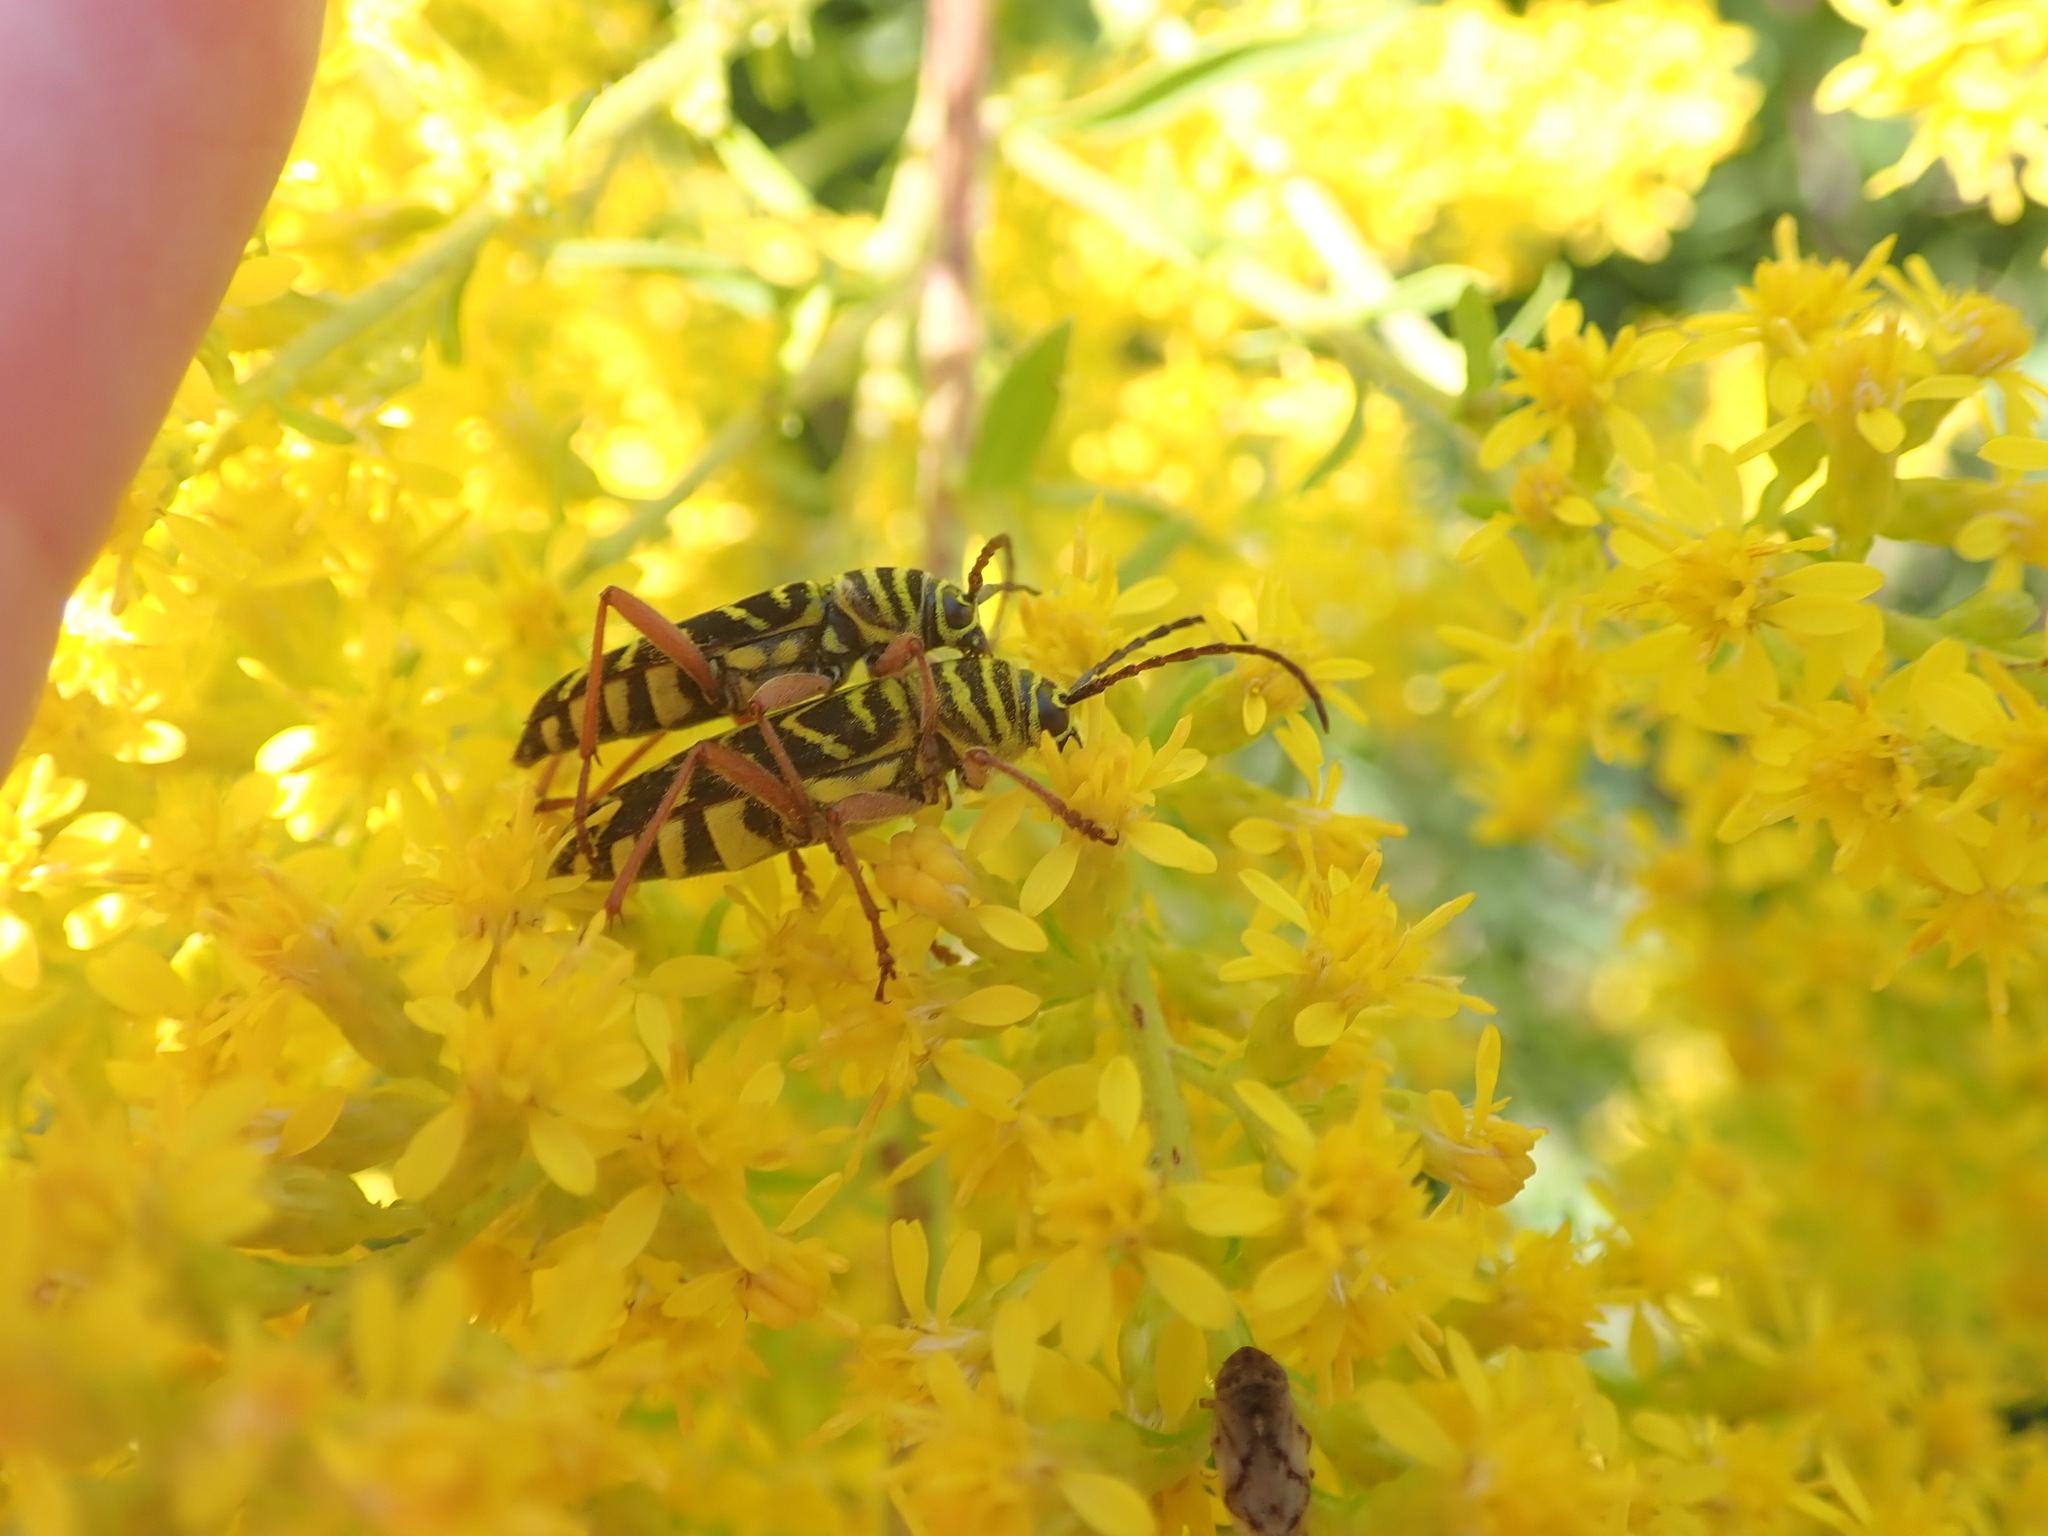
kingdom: Animalia
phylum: Arthropoda
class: Insecta
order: Coleoptera
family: Cerambycidae
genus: Megacyllene
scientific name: Megacyllene robiniae
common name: Locust borer
